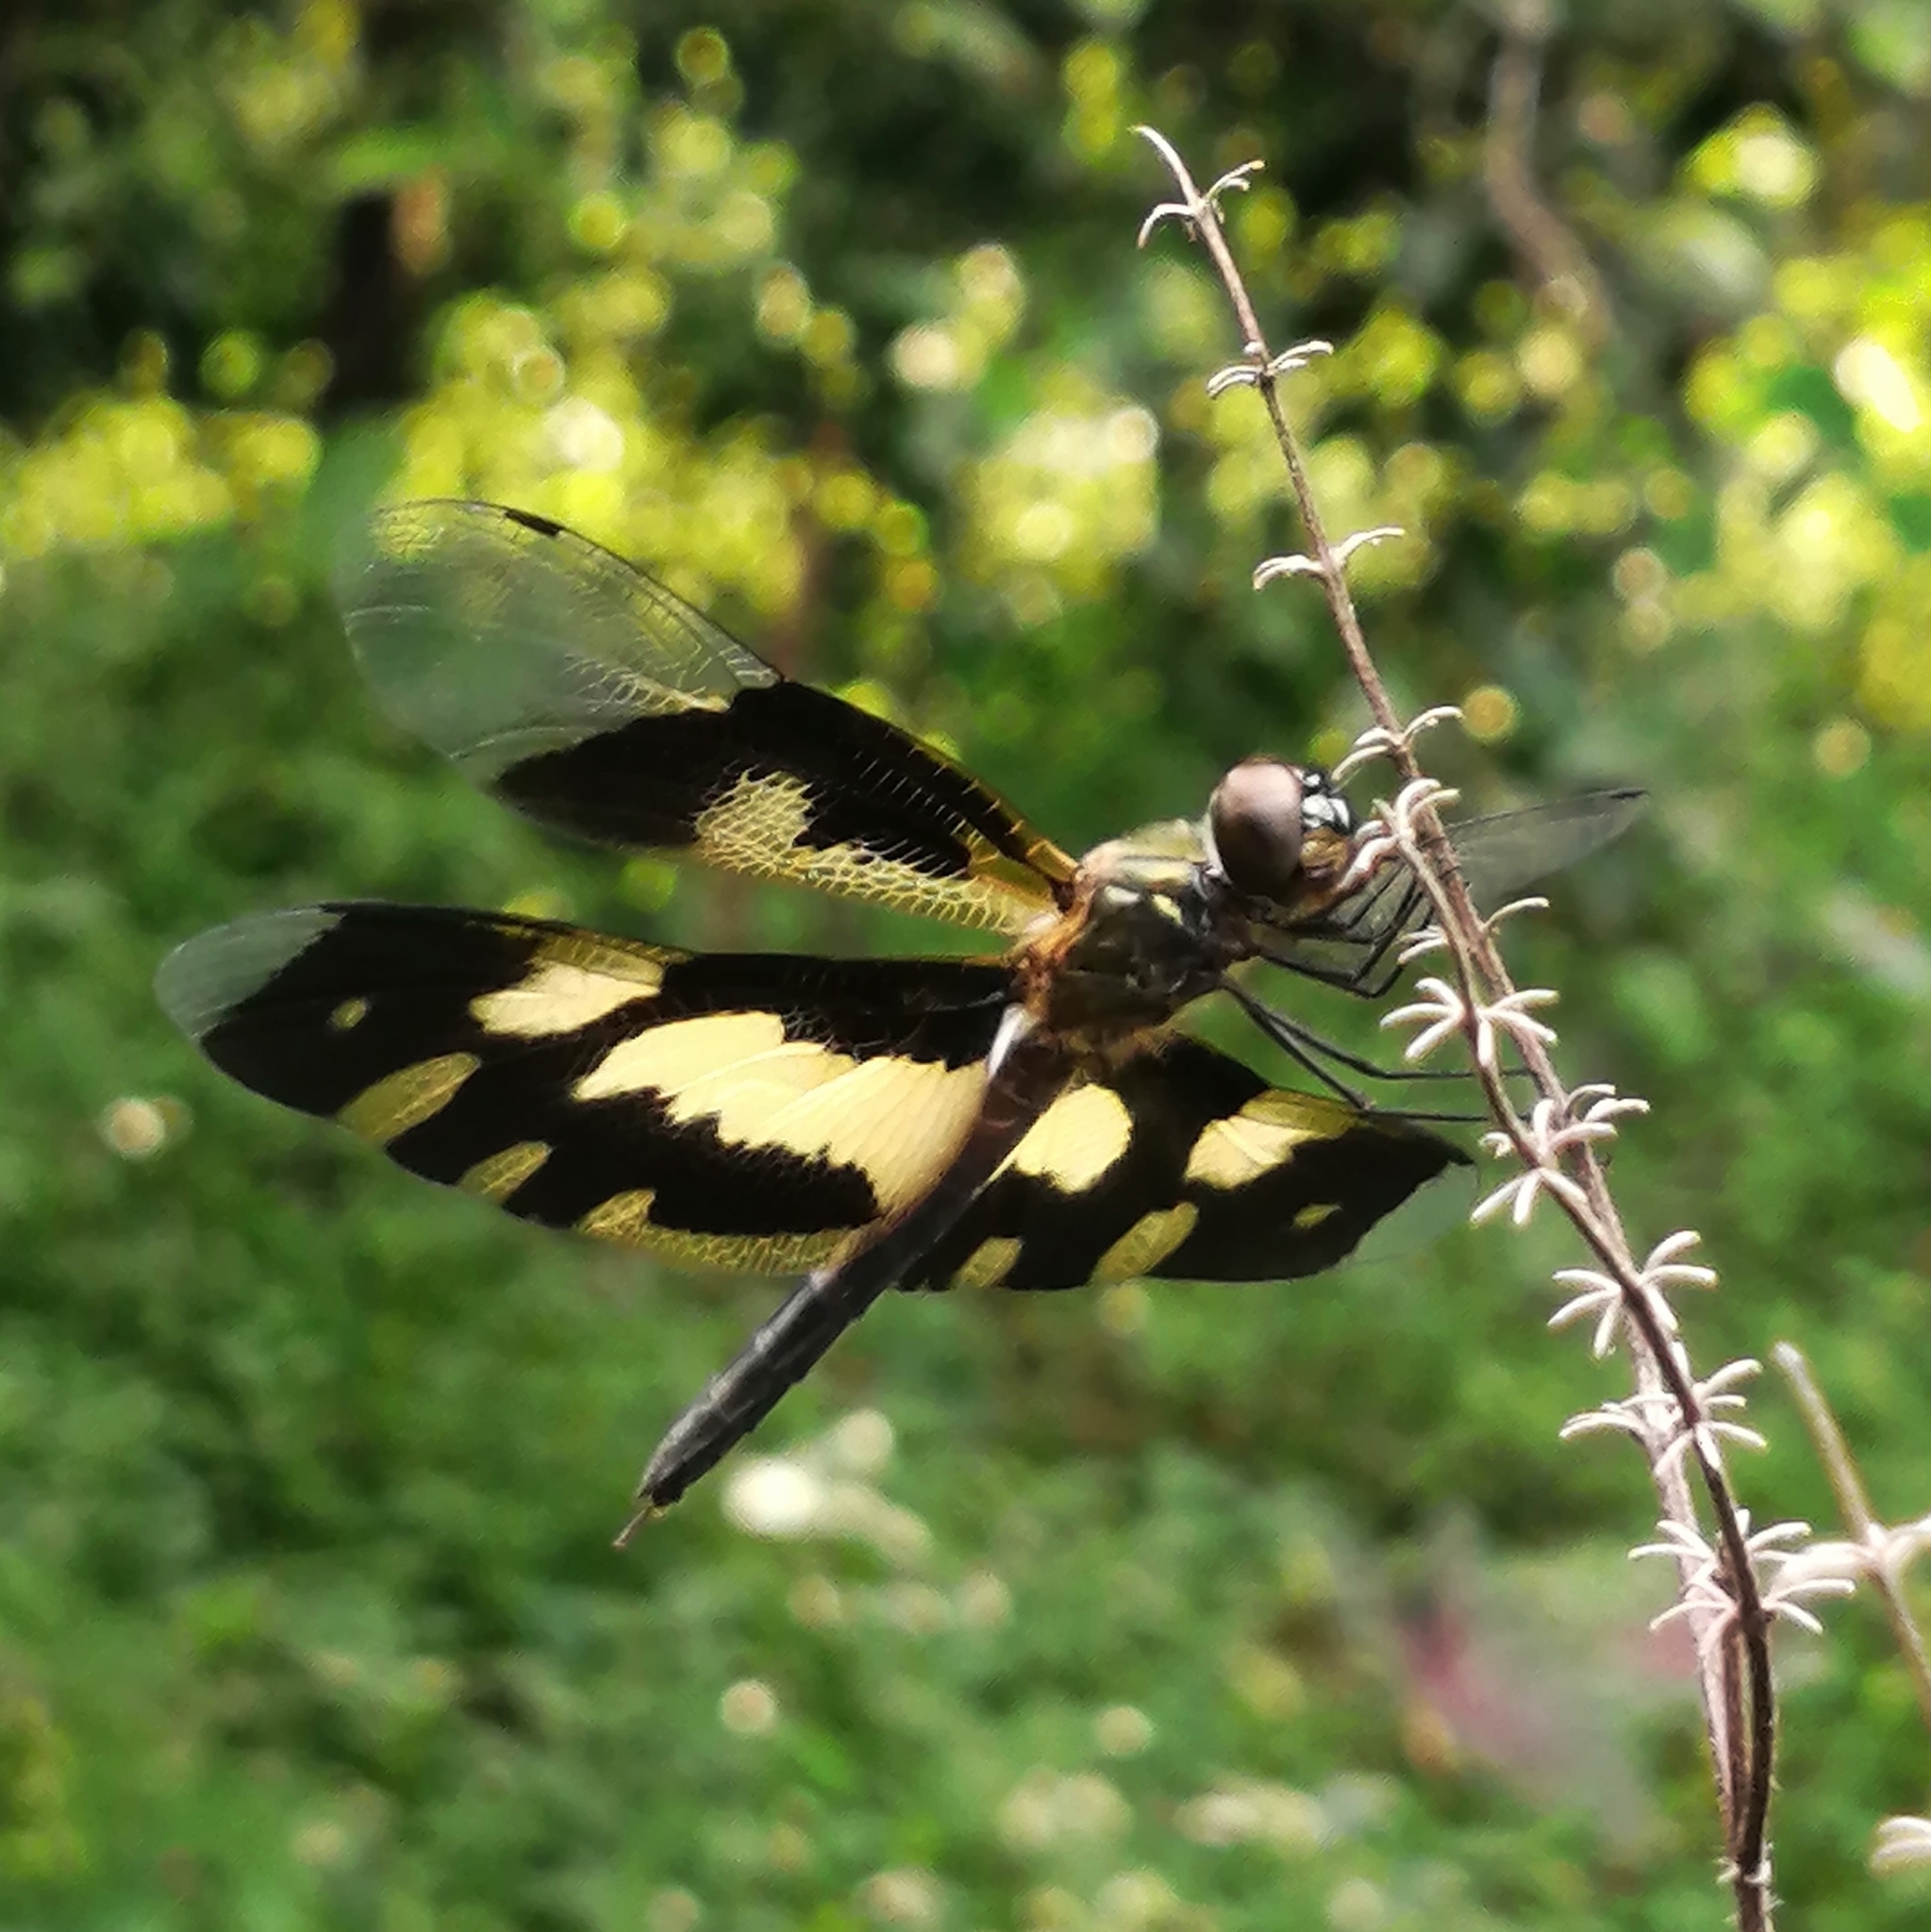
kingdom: Animalia
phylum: Arthropoda
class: Insecta
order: Odonata
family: Libellulidae
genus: Rhyothemis
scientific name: Rhyothemis variegata
